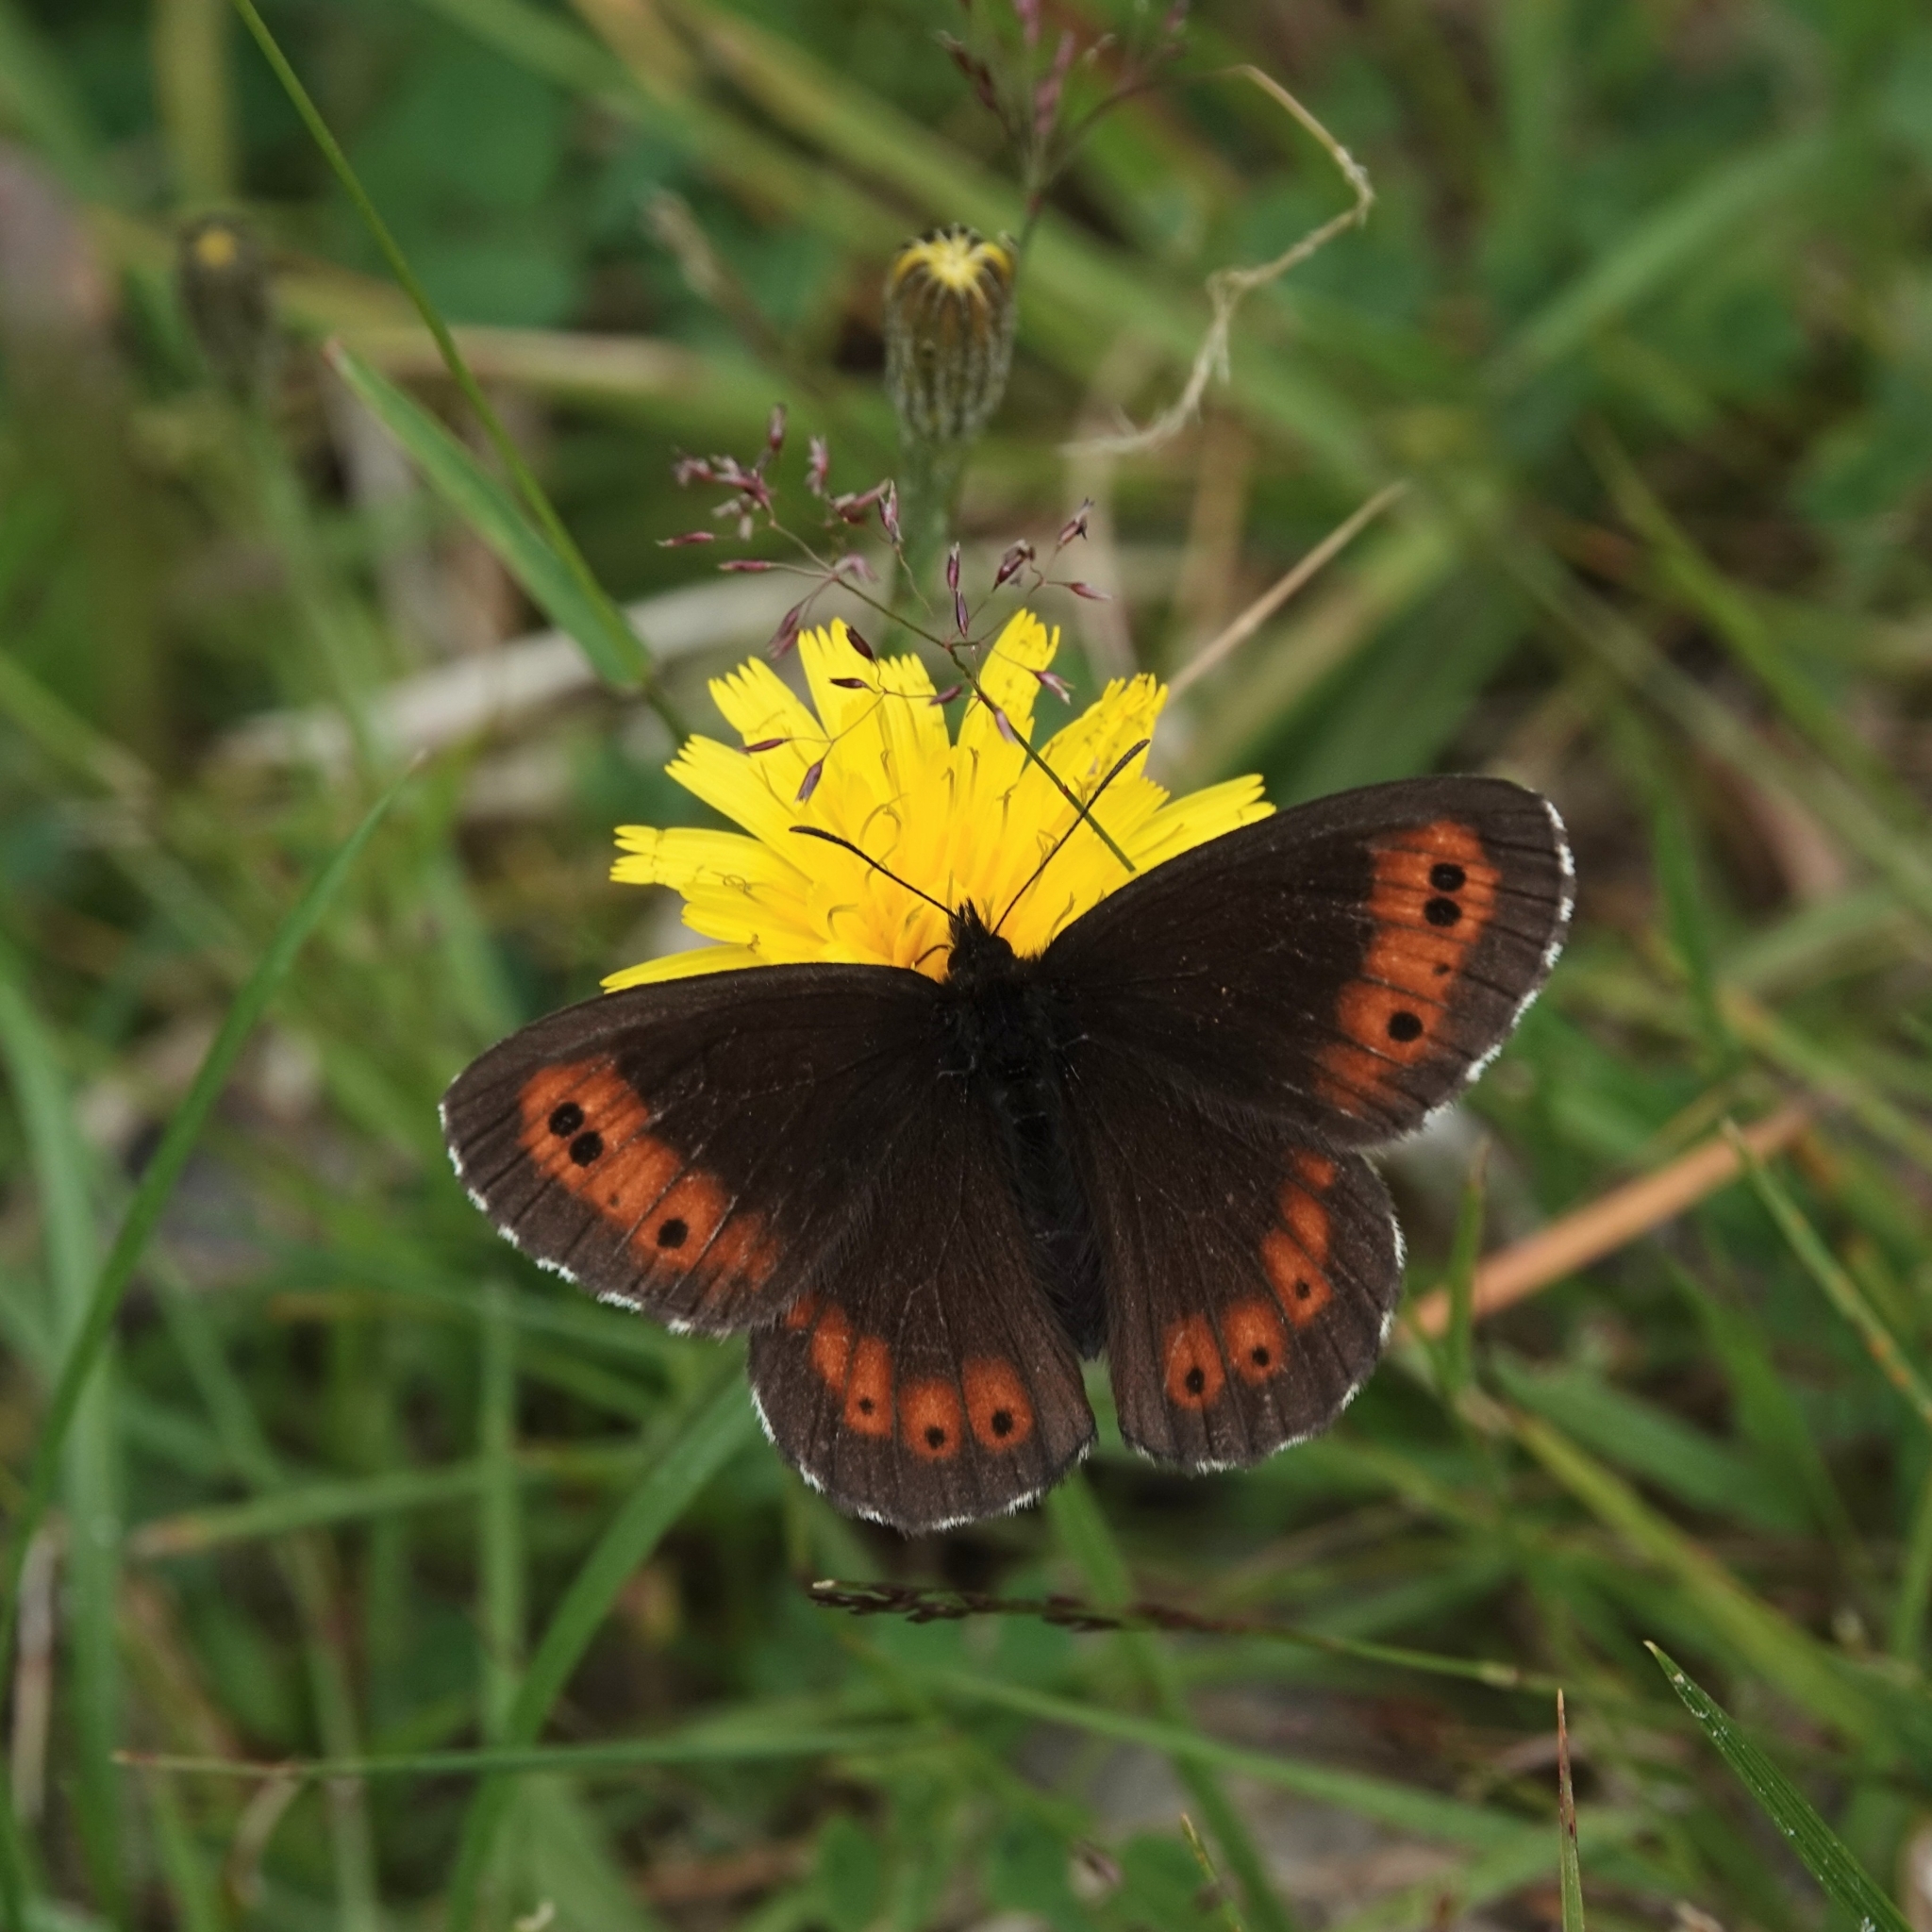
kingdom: Animalia
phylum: Arthropoda
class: Insecta
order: Lepidoptera
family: Nymphalidae
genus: Erebia
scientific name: Erebia ligea
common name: Arran brown
